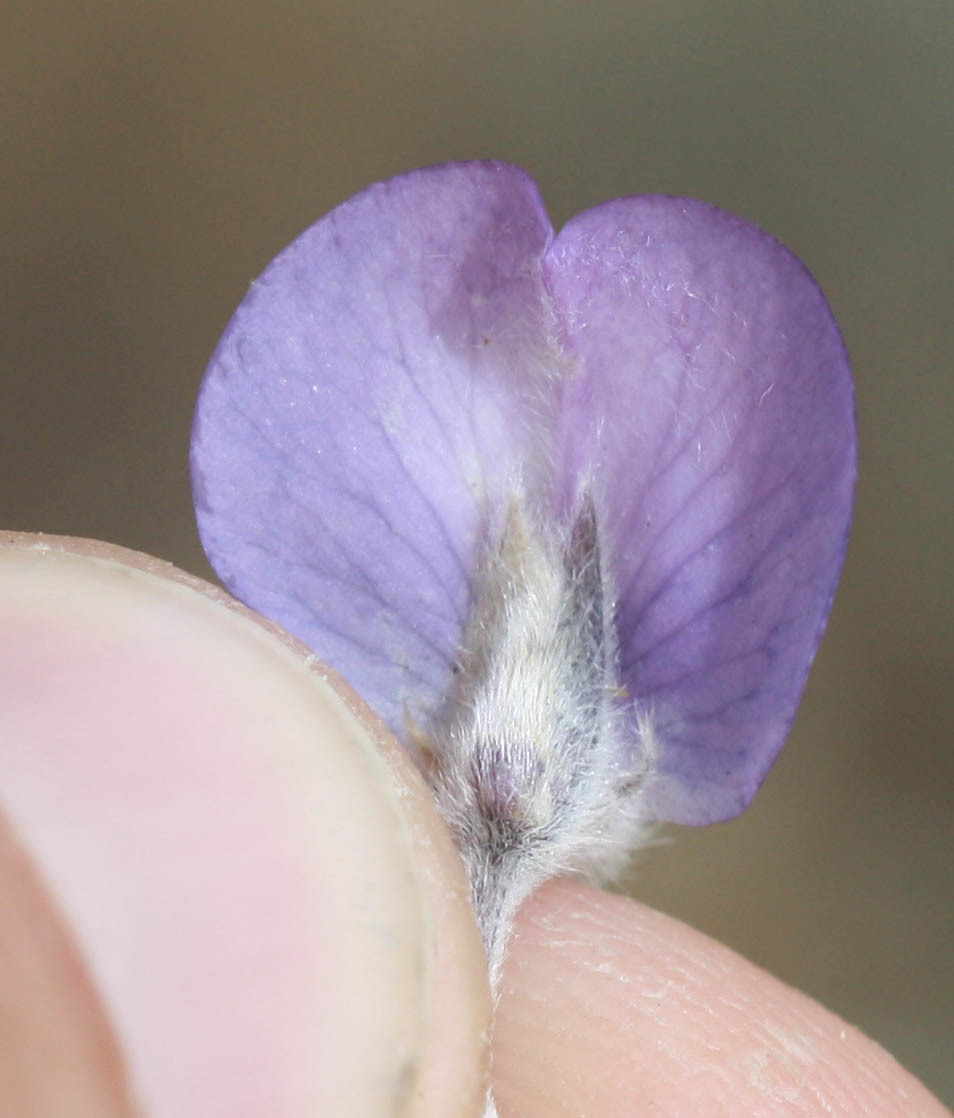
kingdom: Plantae
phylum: Tracheophyta
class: Magnoliopsida
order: Fabales
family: Fabaceae
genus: Lupinus
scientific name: Lupinus chamissonis
